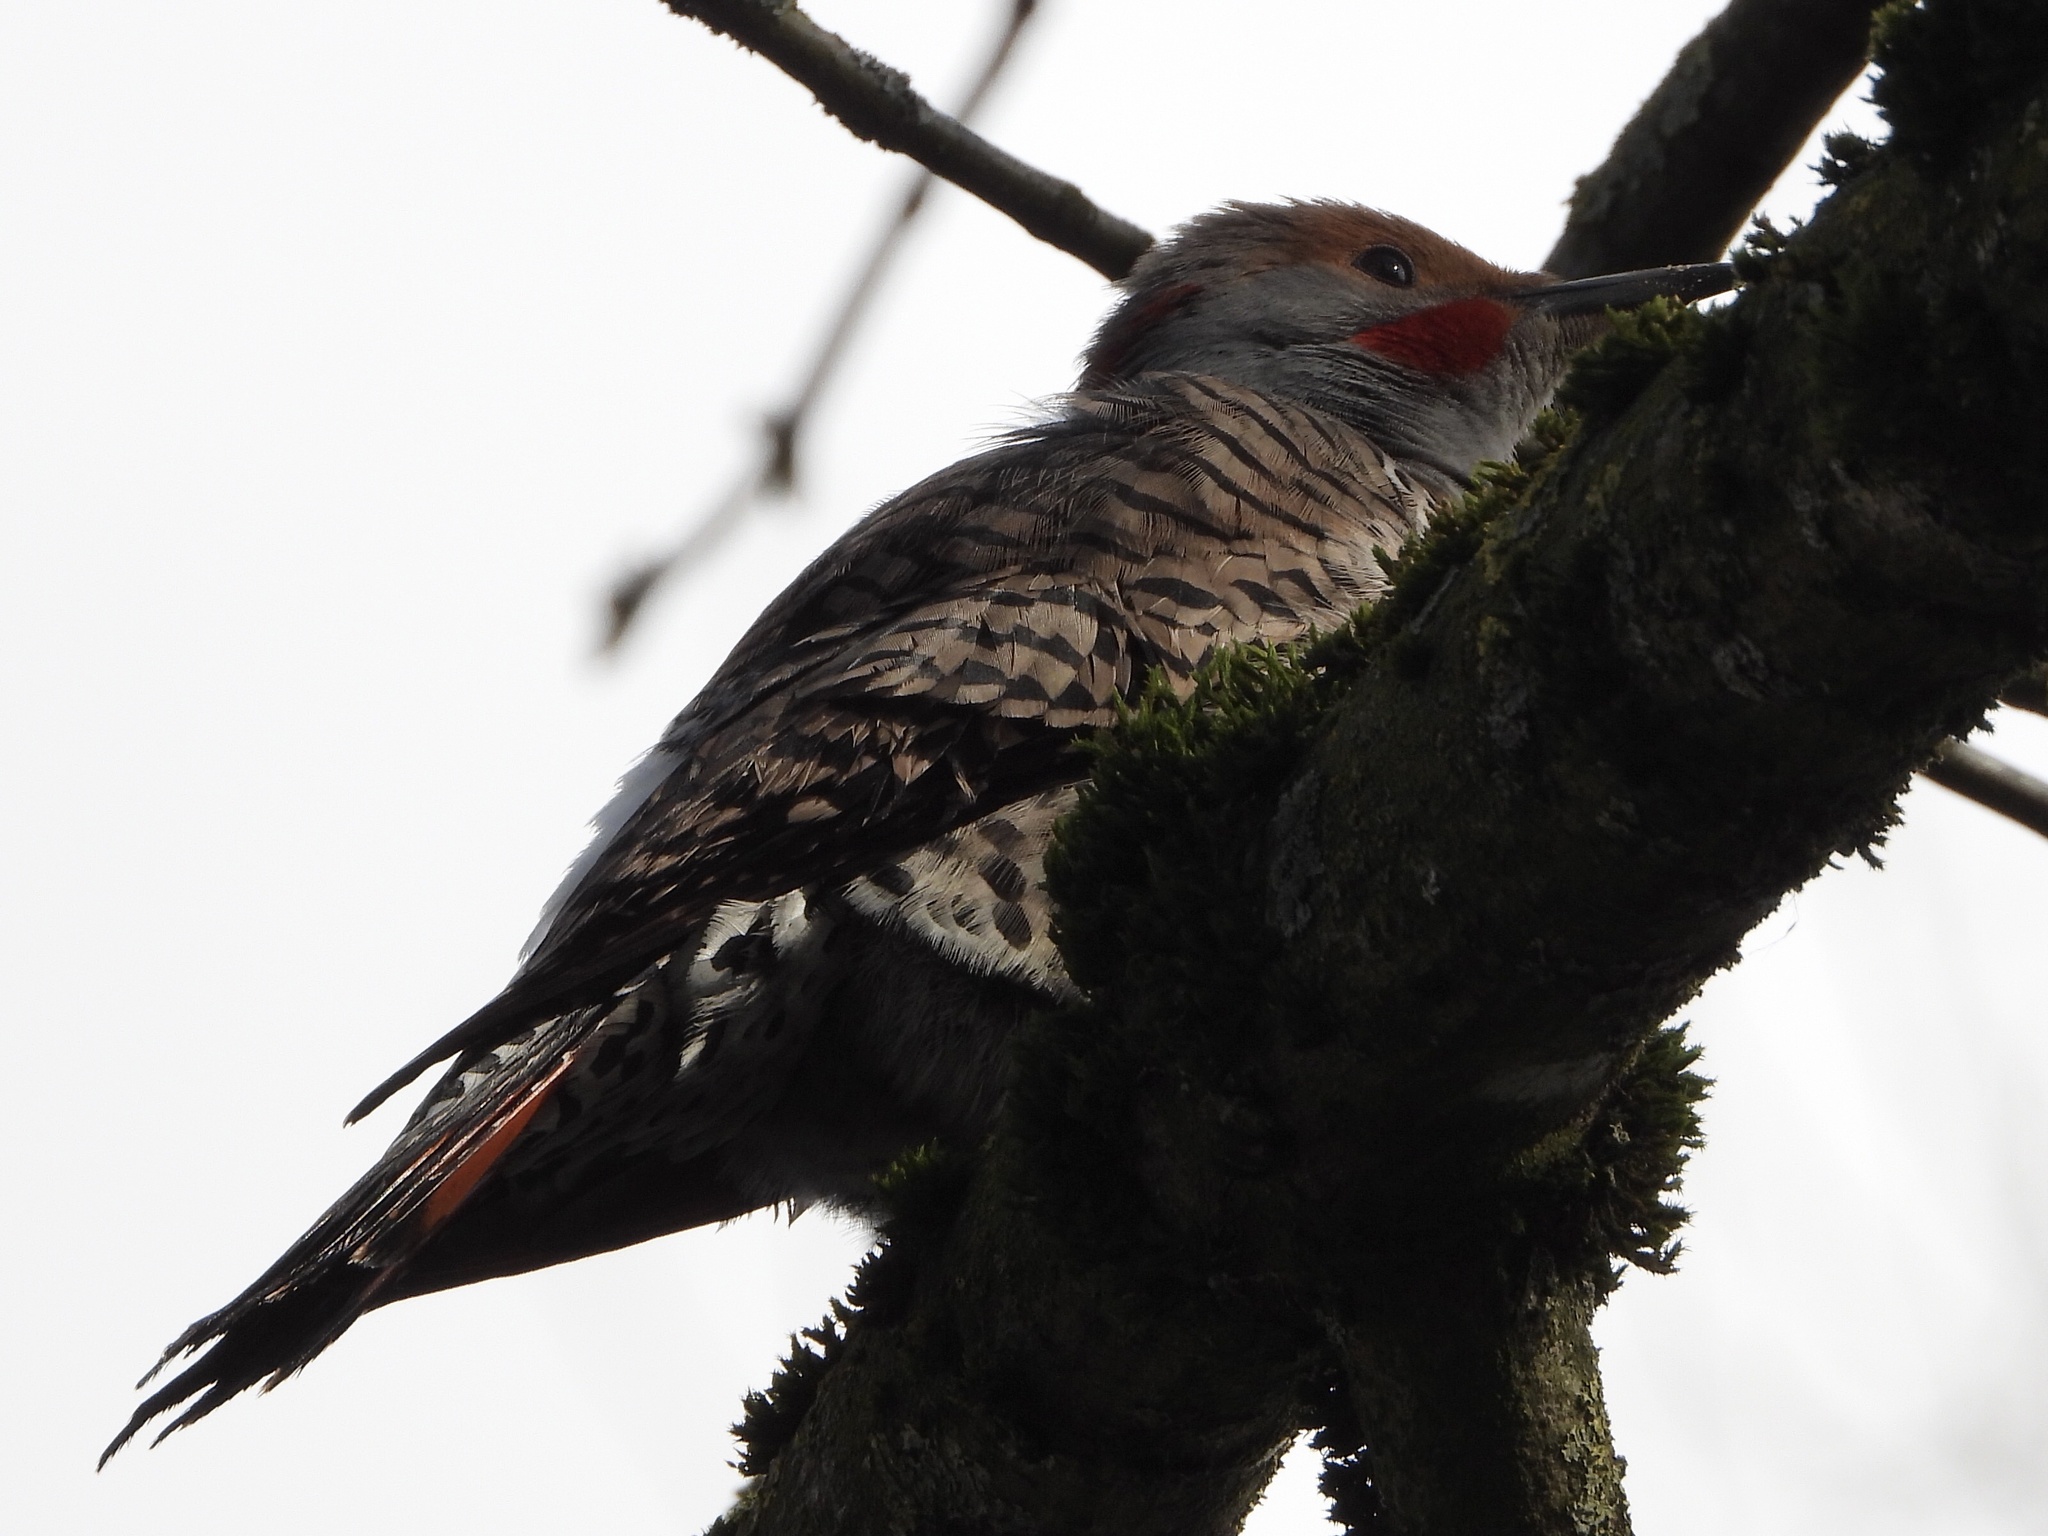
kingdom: Animalia
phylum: Chordata
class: Aves
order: Piciformes
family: Picidae
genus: Colaptes
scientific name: Colaptes
